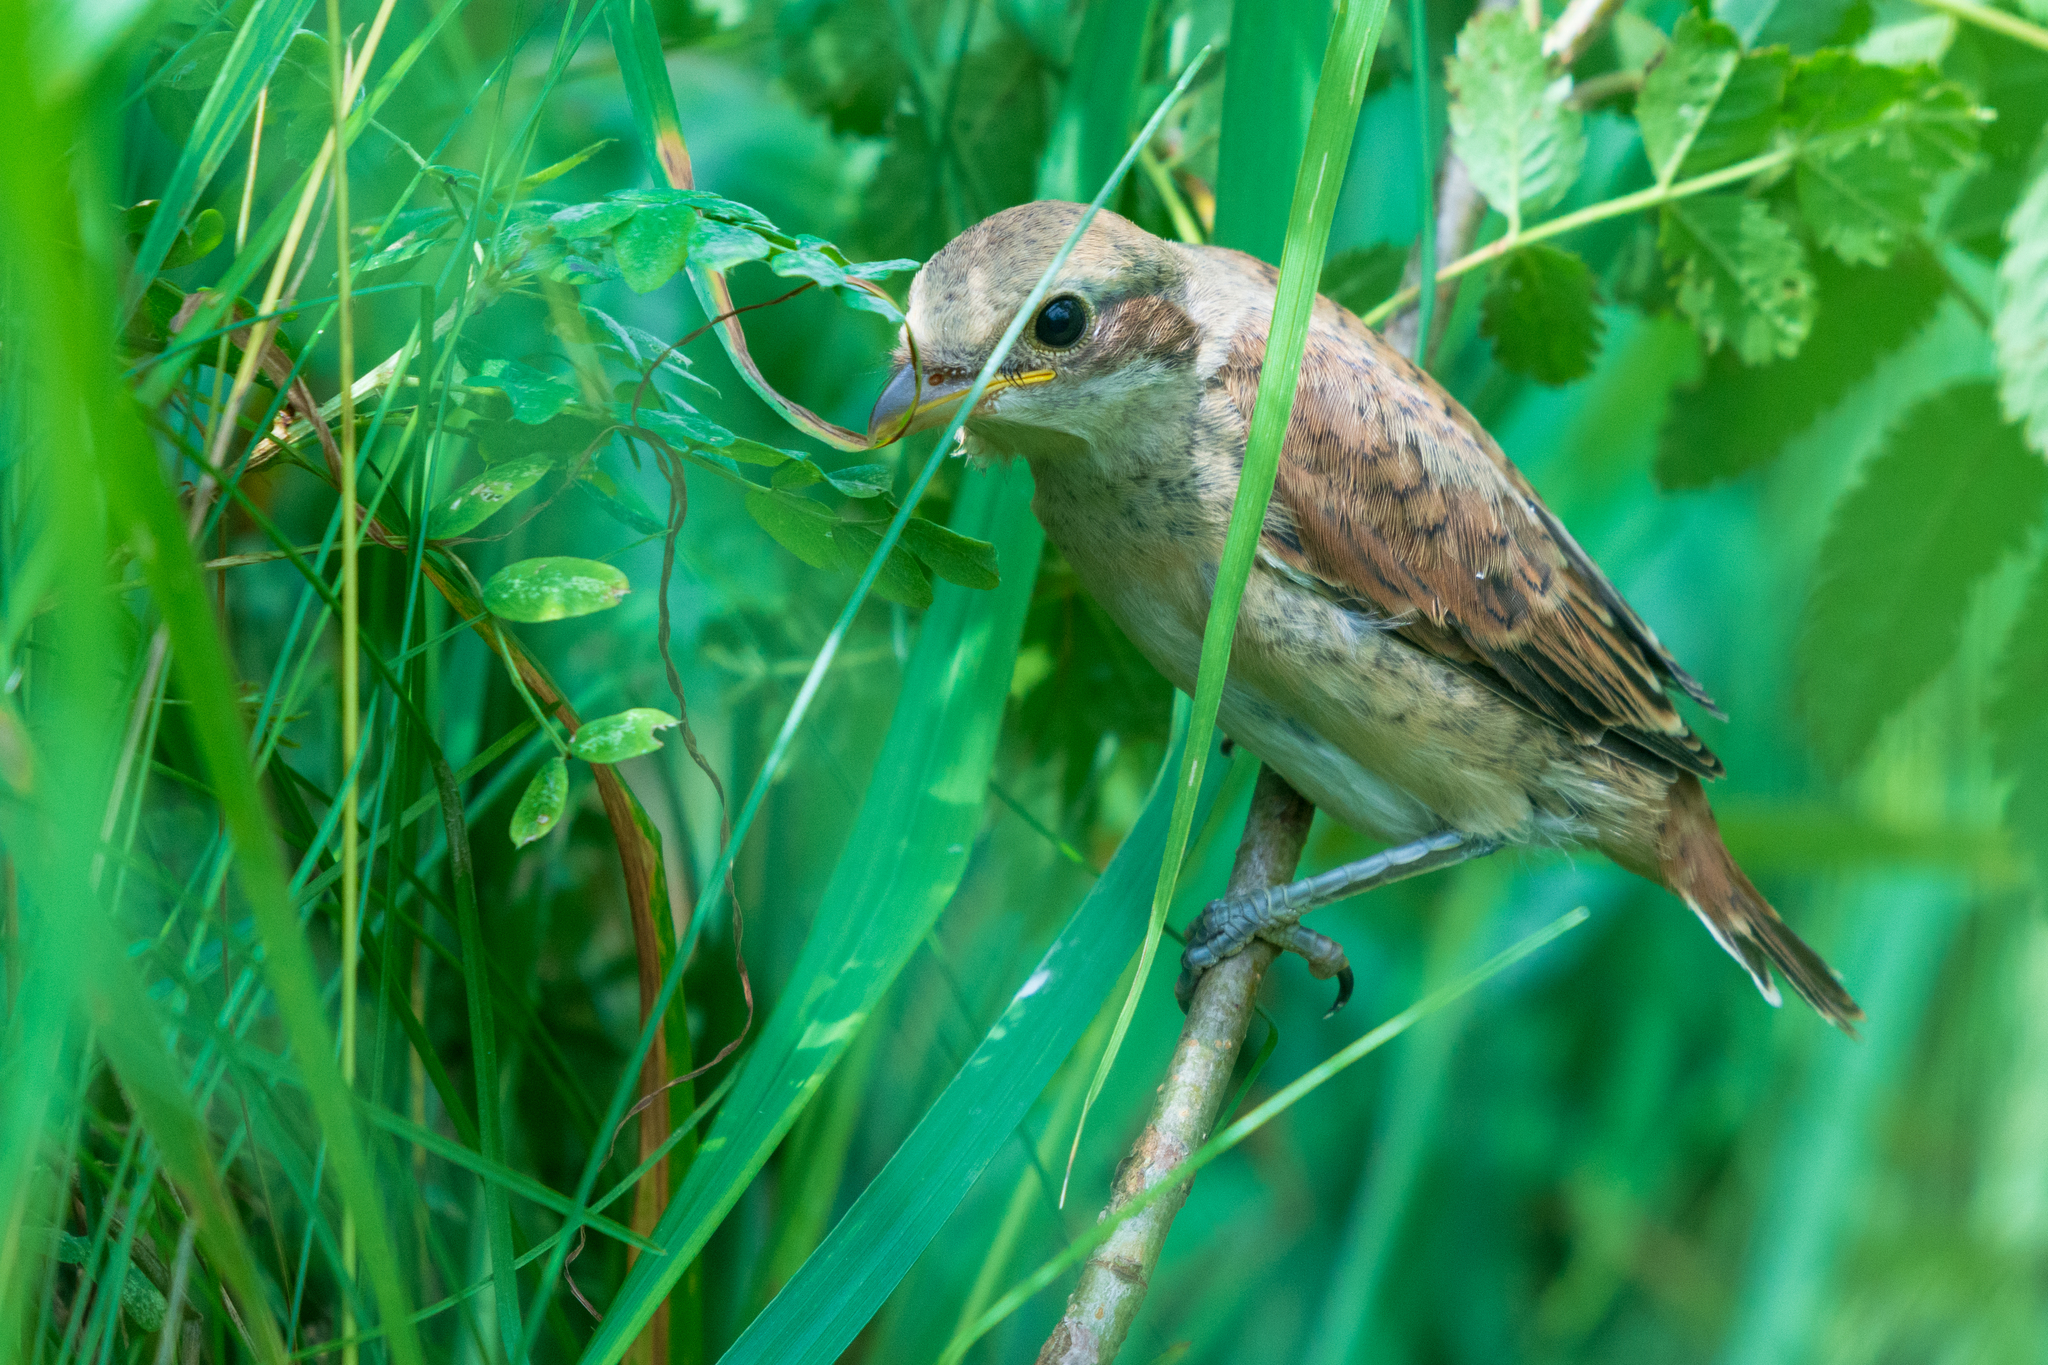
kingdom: Animalia
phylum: Chordata
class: Aves
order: Passeriformes
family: Laniidae
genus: Lanius
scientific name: Lanius collurio
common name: Red-backed shrike
